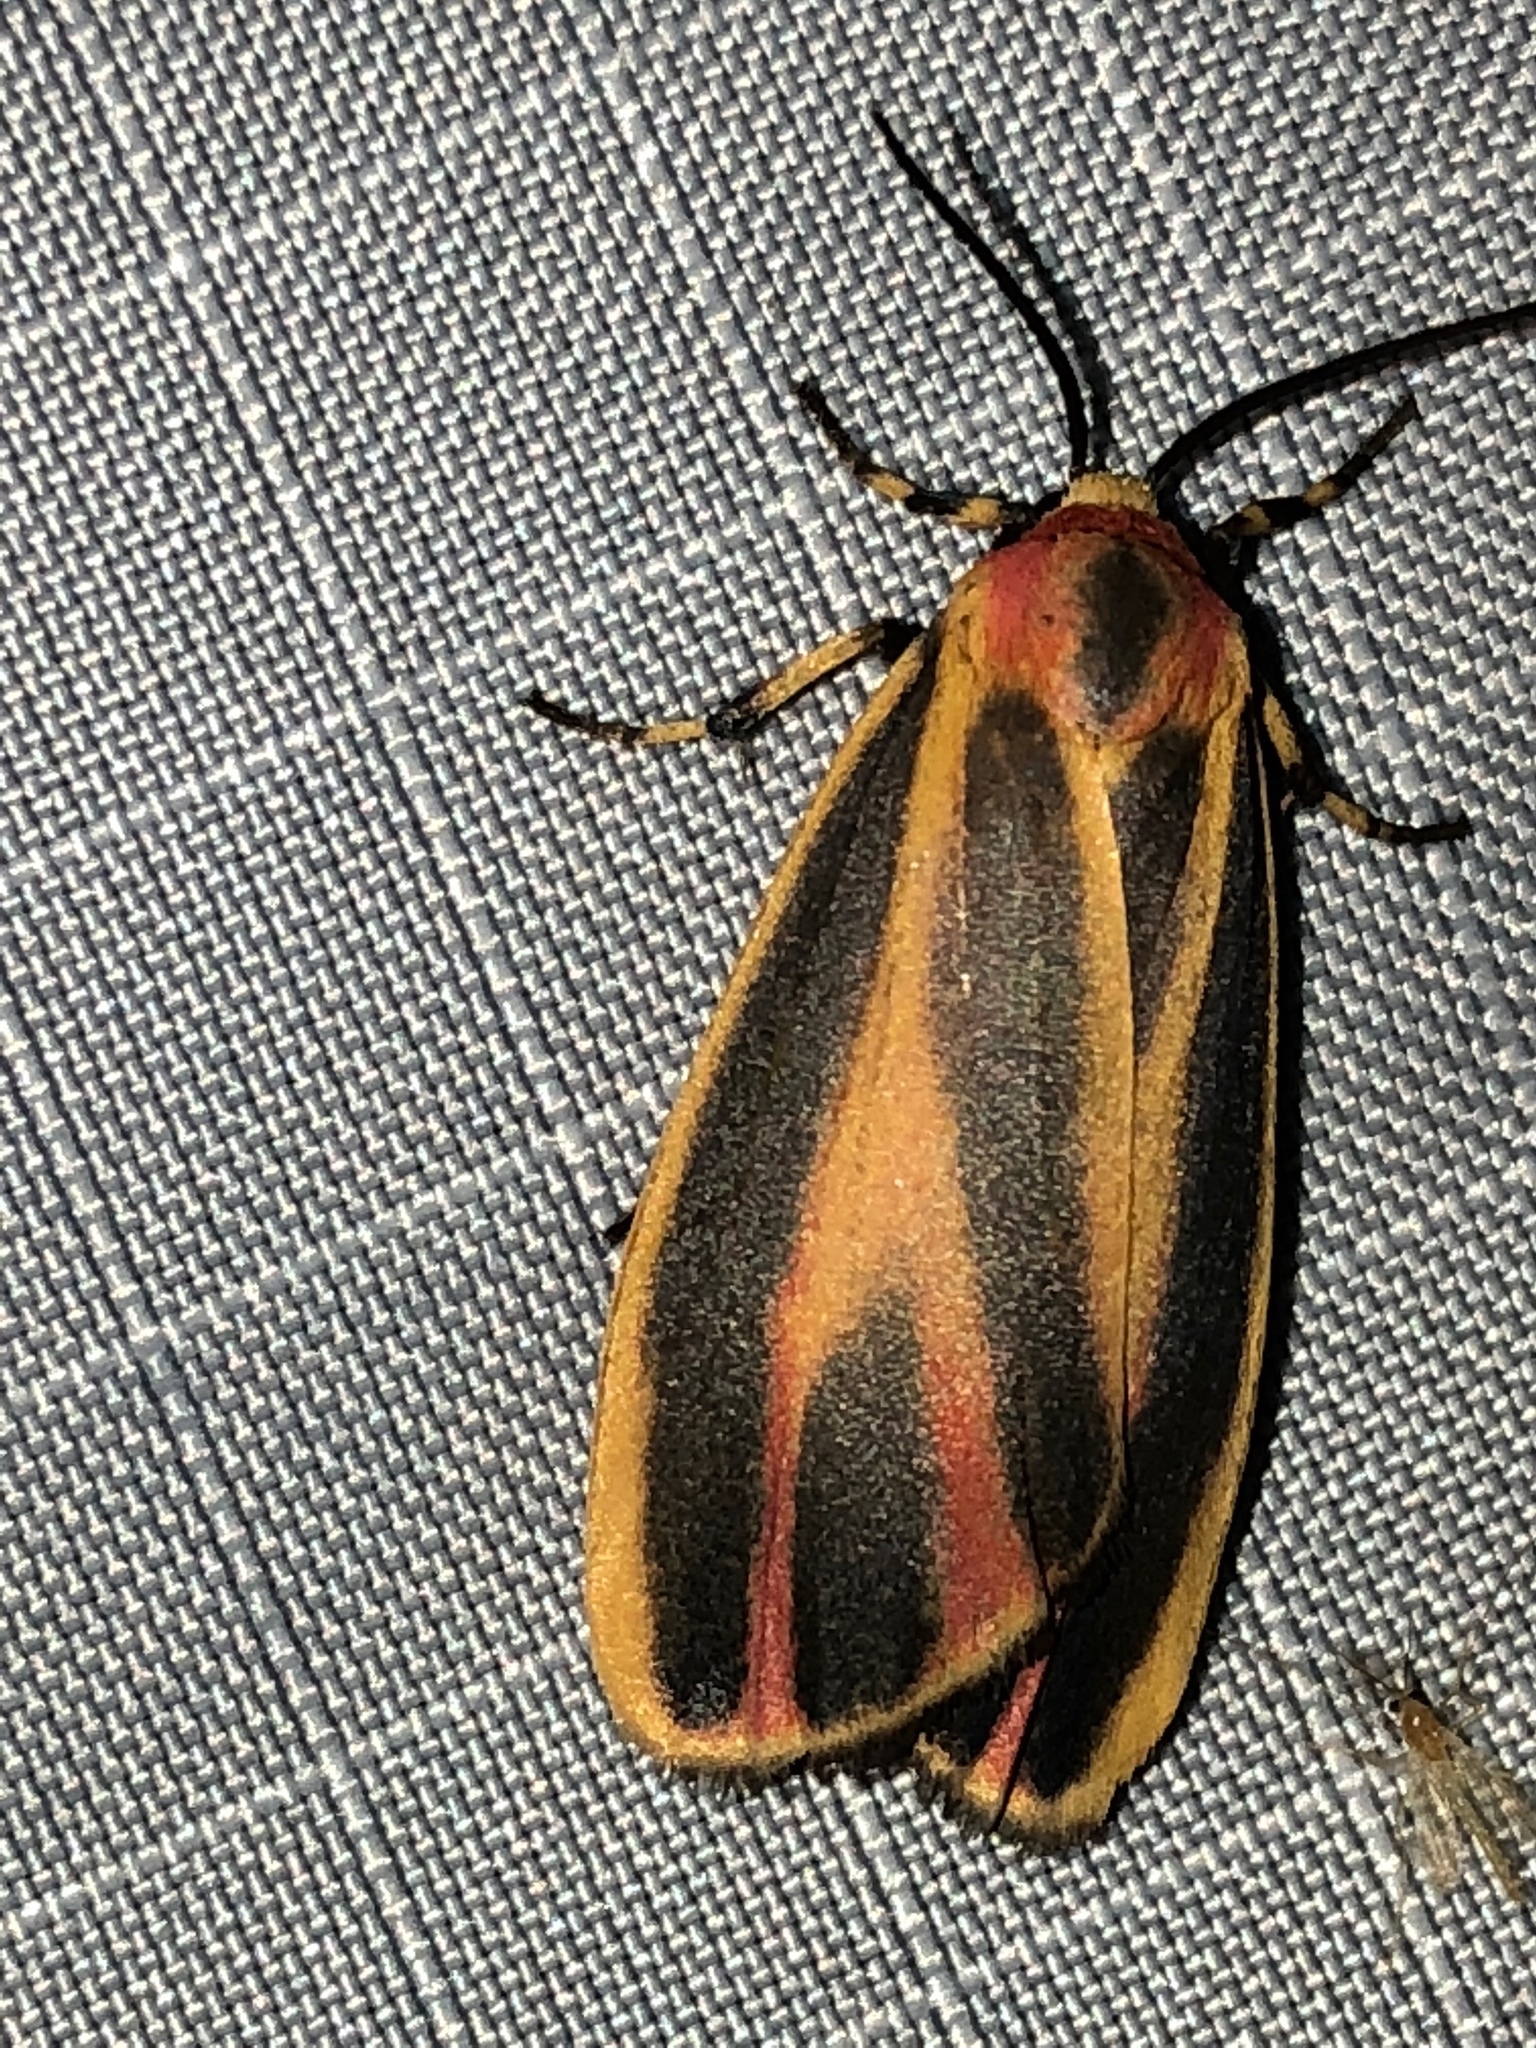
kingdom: Animalia
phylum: Arthropoda
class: Insecta
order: Lepidoptera
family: Erebidae
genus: Hypoprepia
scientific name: Hypoprepia fucosa
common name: Painted lichen moth
